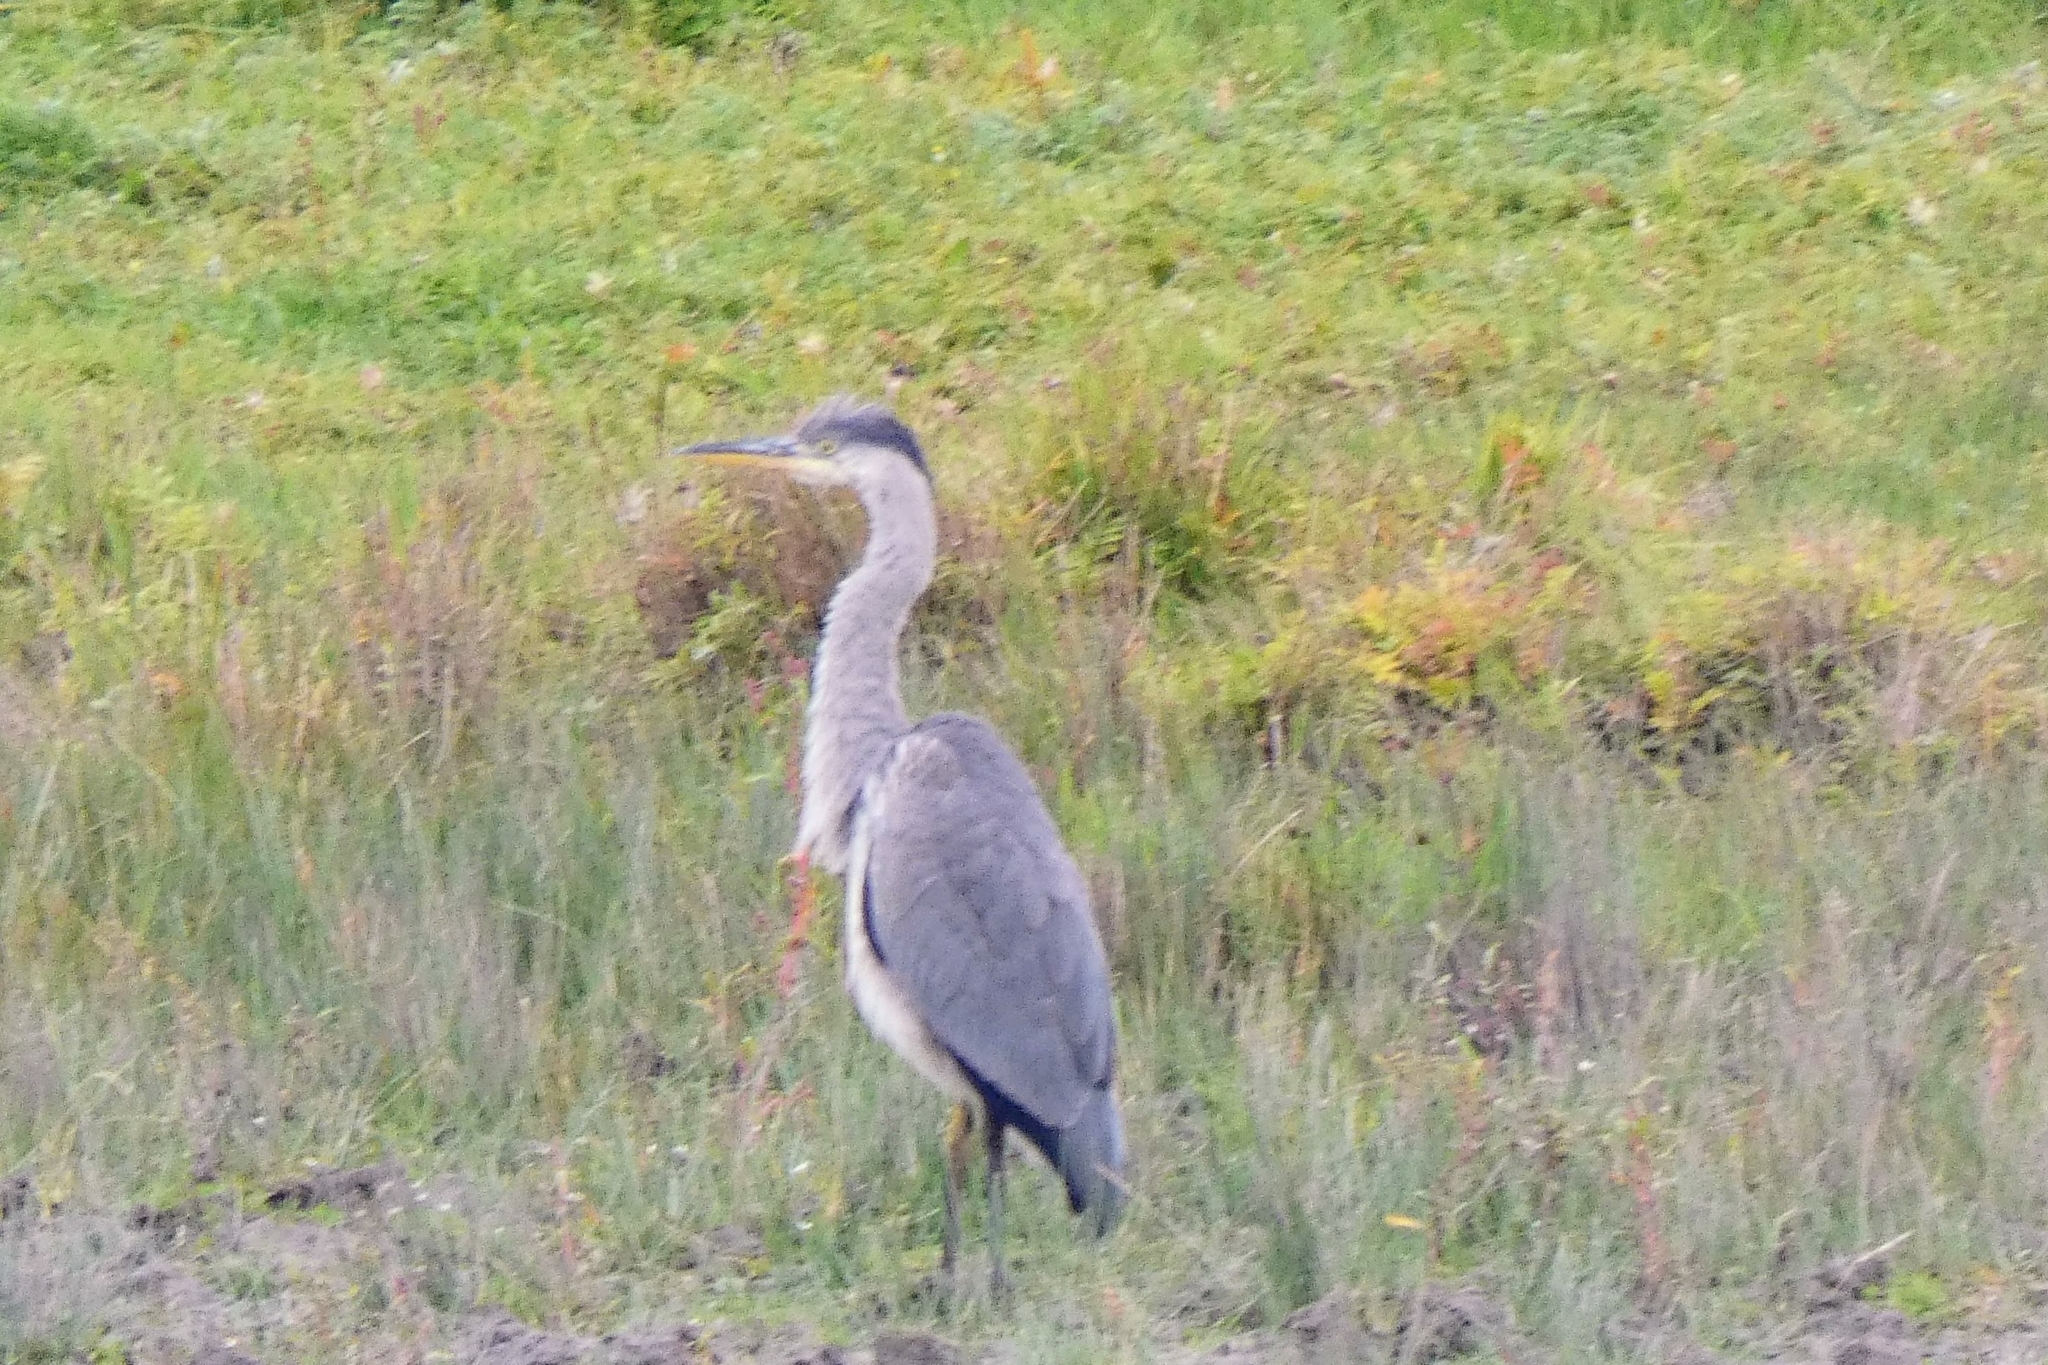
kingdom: Animalia
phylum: Chordata
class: Aves
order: Pelecaniformes
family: Ardeidae
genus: Ardea
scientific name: Ardea cinerea
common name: Grey heron
